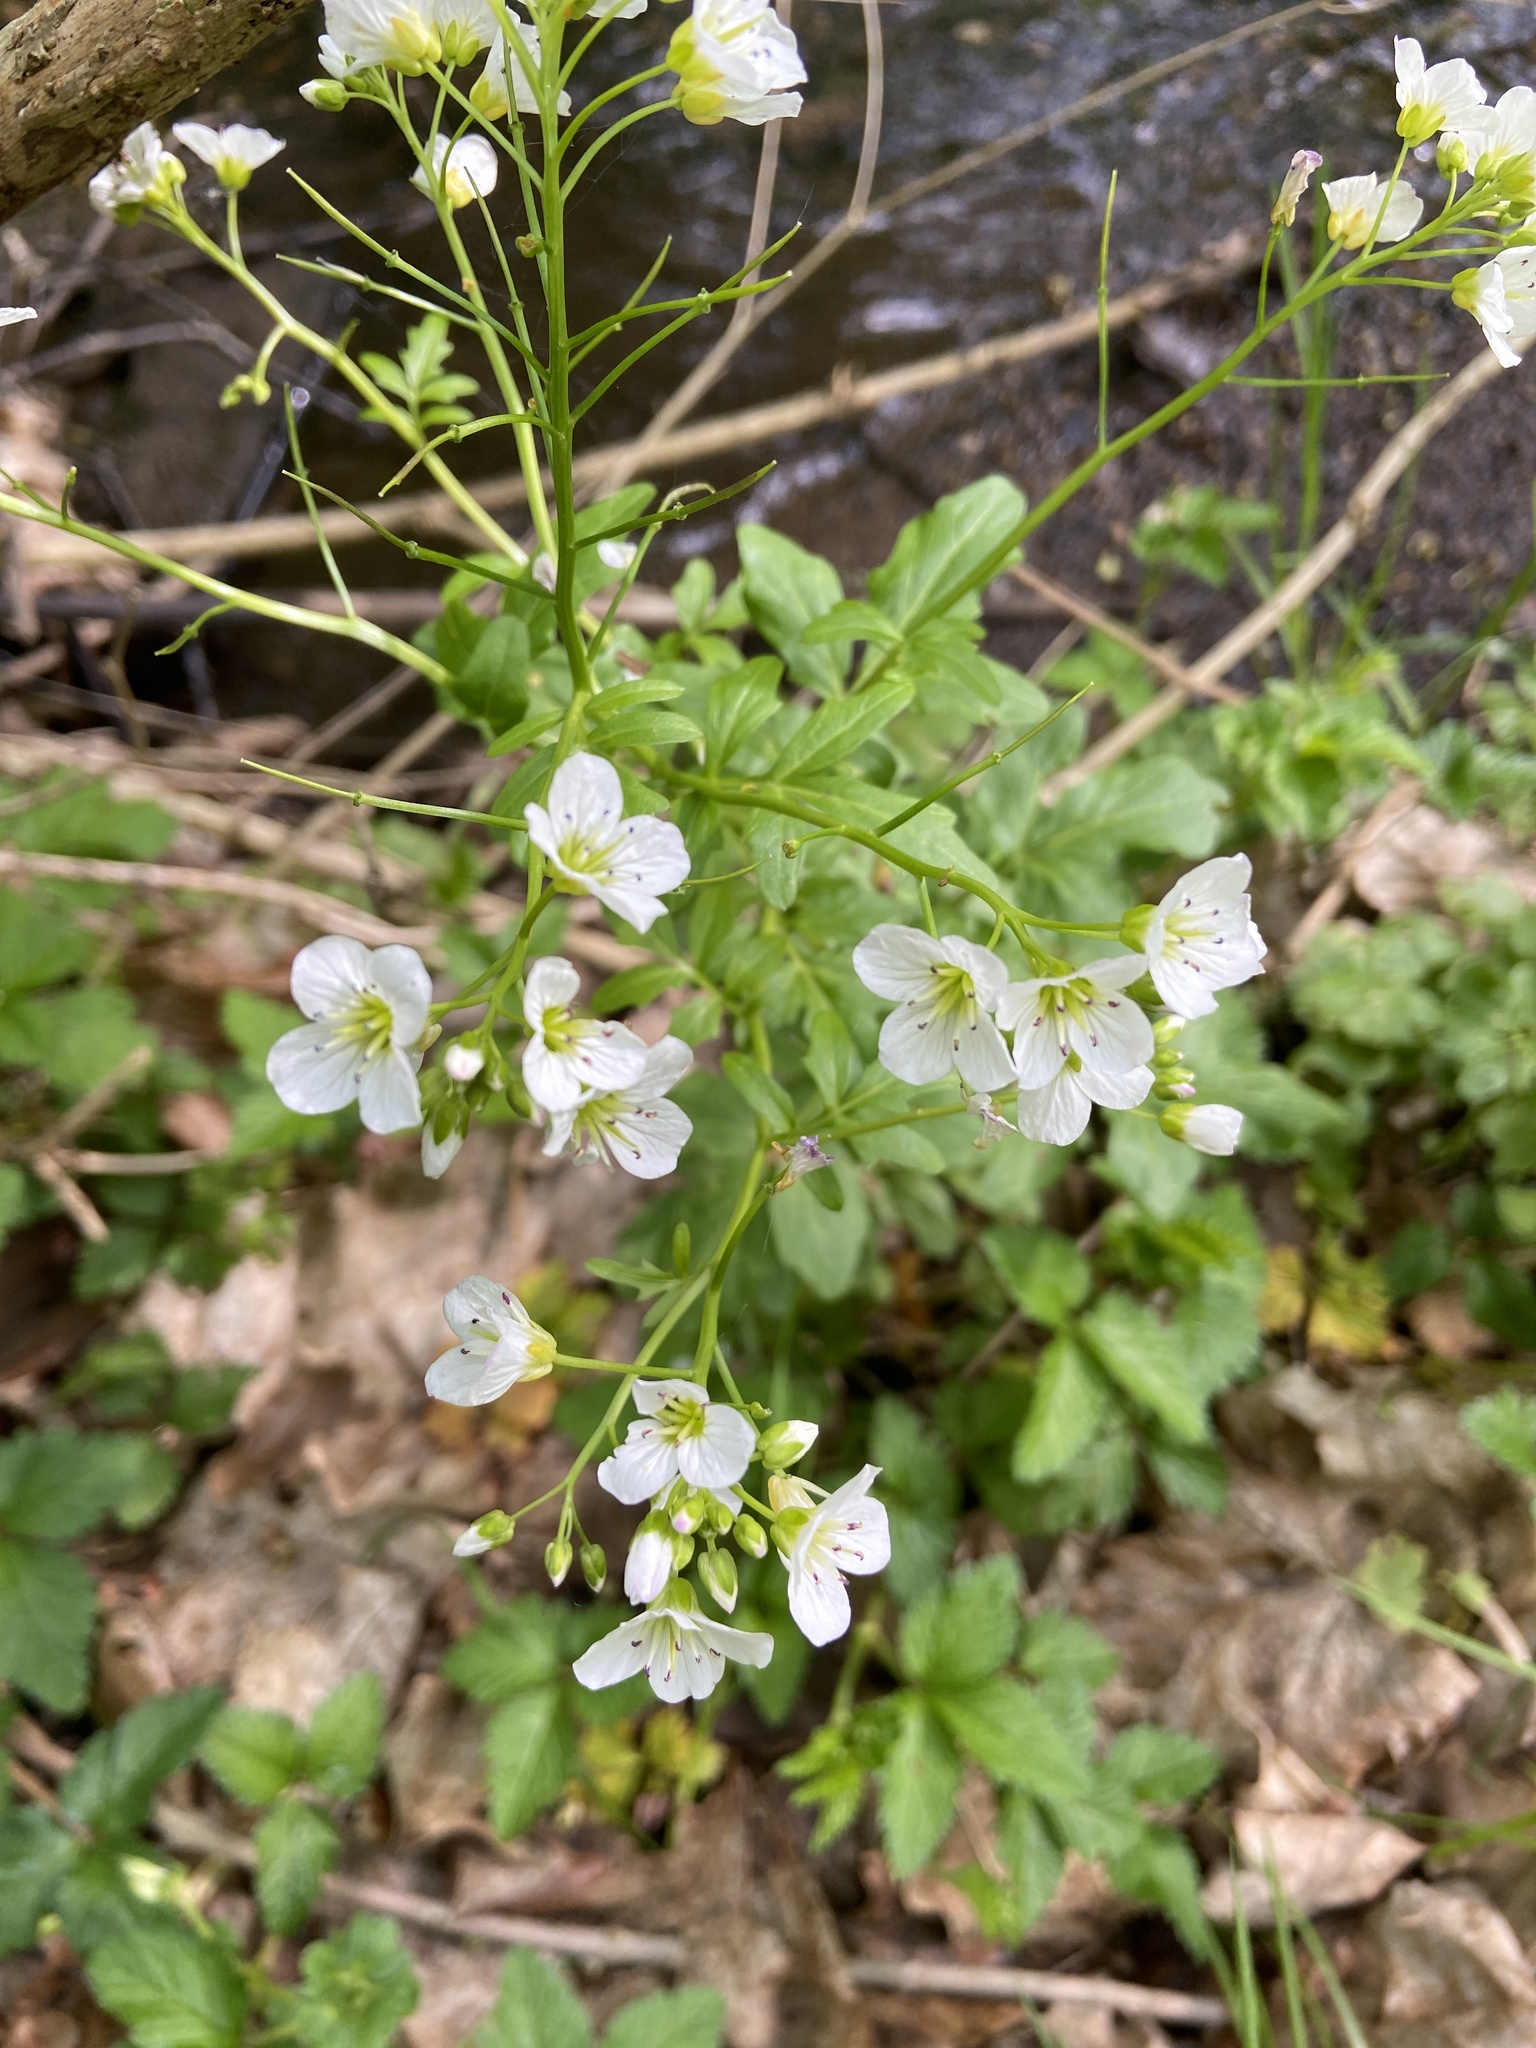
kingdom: Plantae
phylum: Tracheophyta
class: Magnoliopsida
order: Brassicales
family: Brassicaceae
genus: Cardamine
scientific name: Cardamine amara
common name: Large bitter-cress
